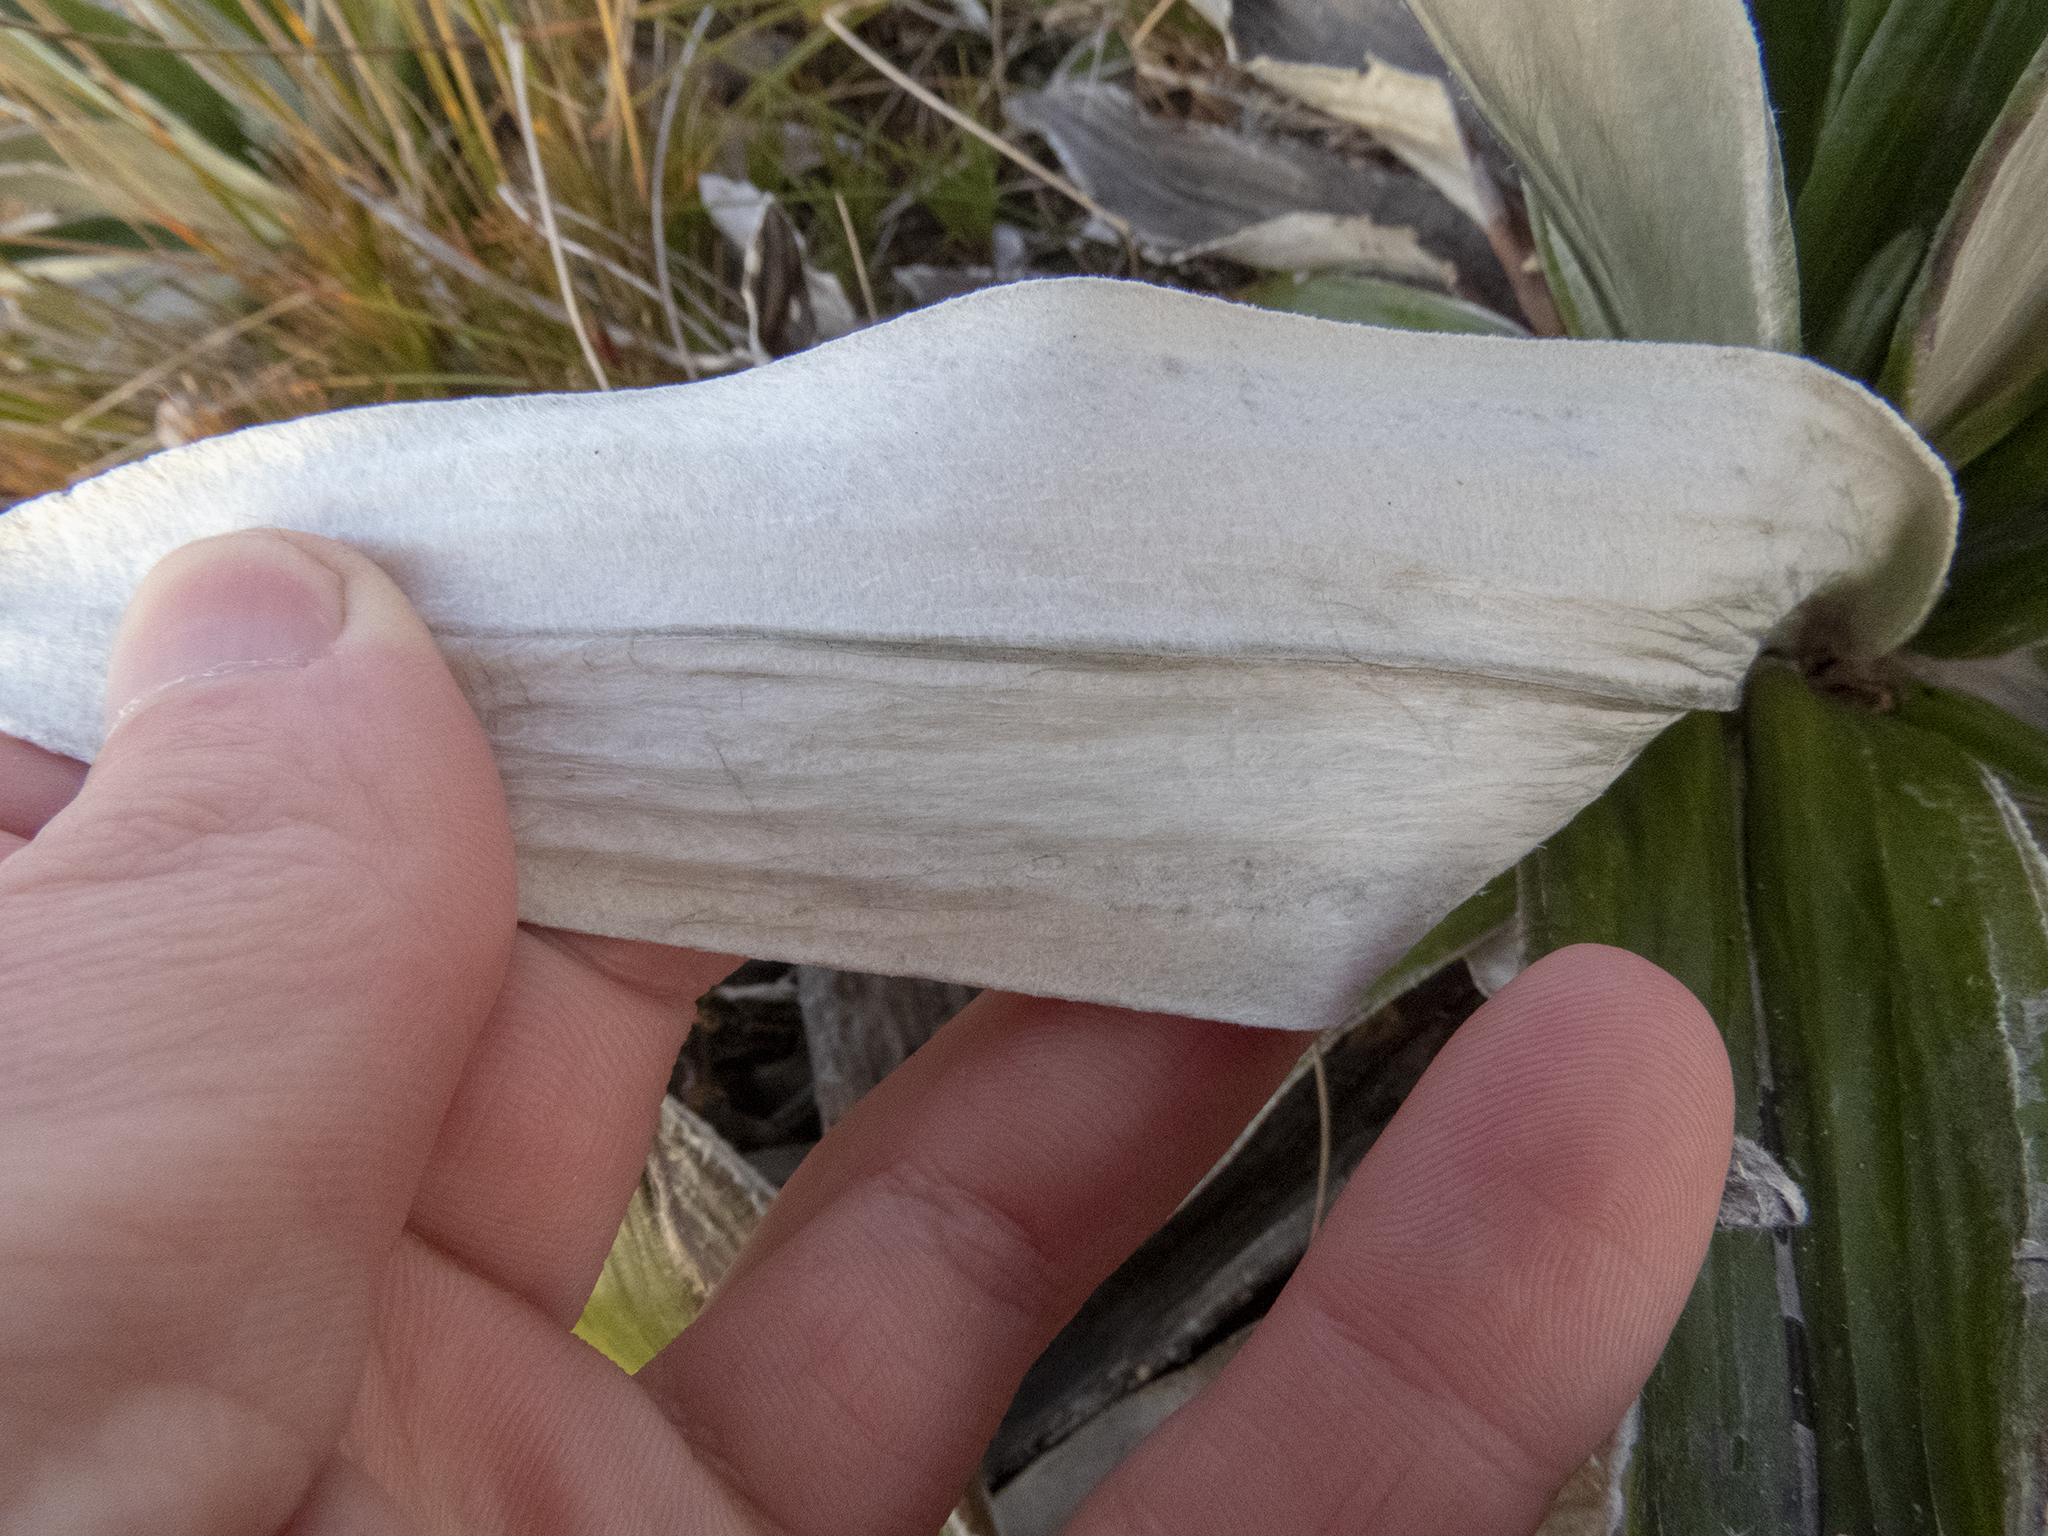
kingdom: Plantae
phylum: Tracheophyta
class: Magnoliopsida
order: Asterales
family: Asteraceae
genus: Celmisia
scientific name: Celmisia semicordata
